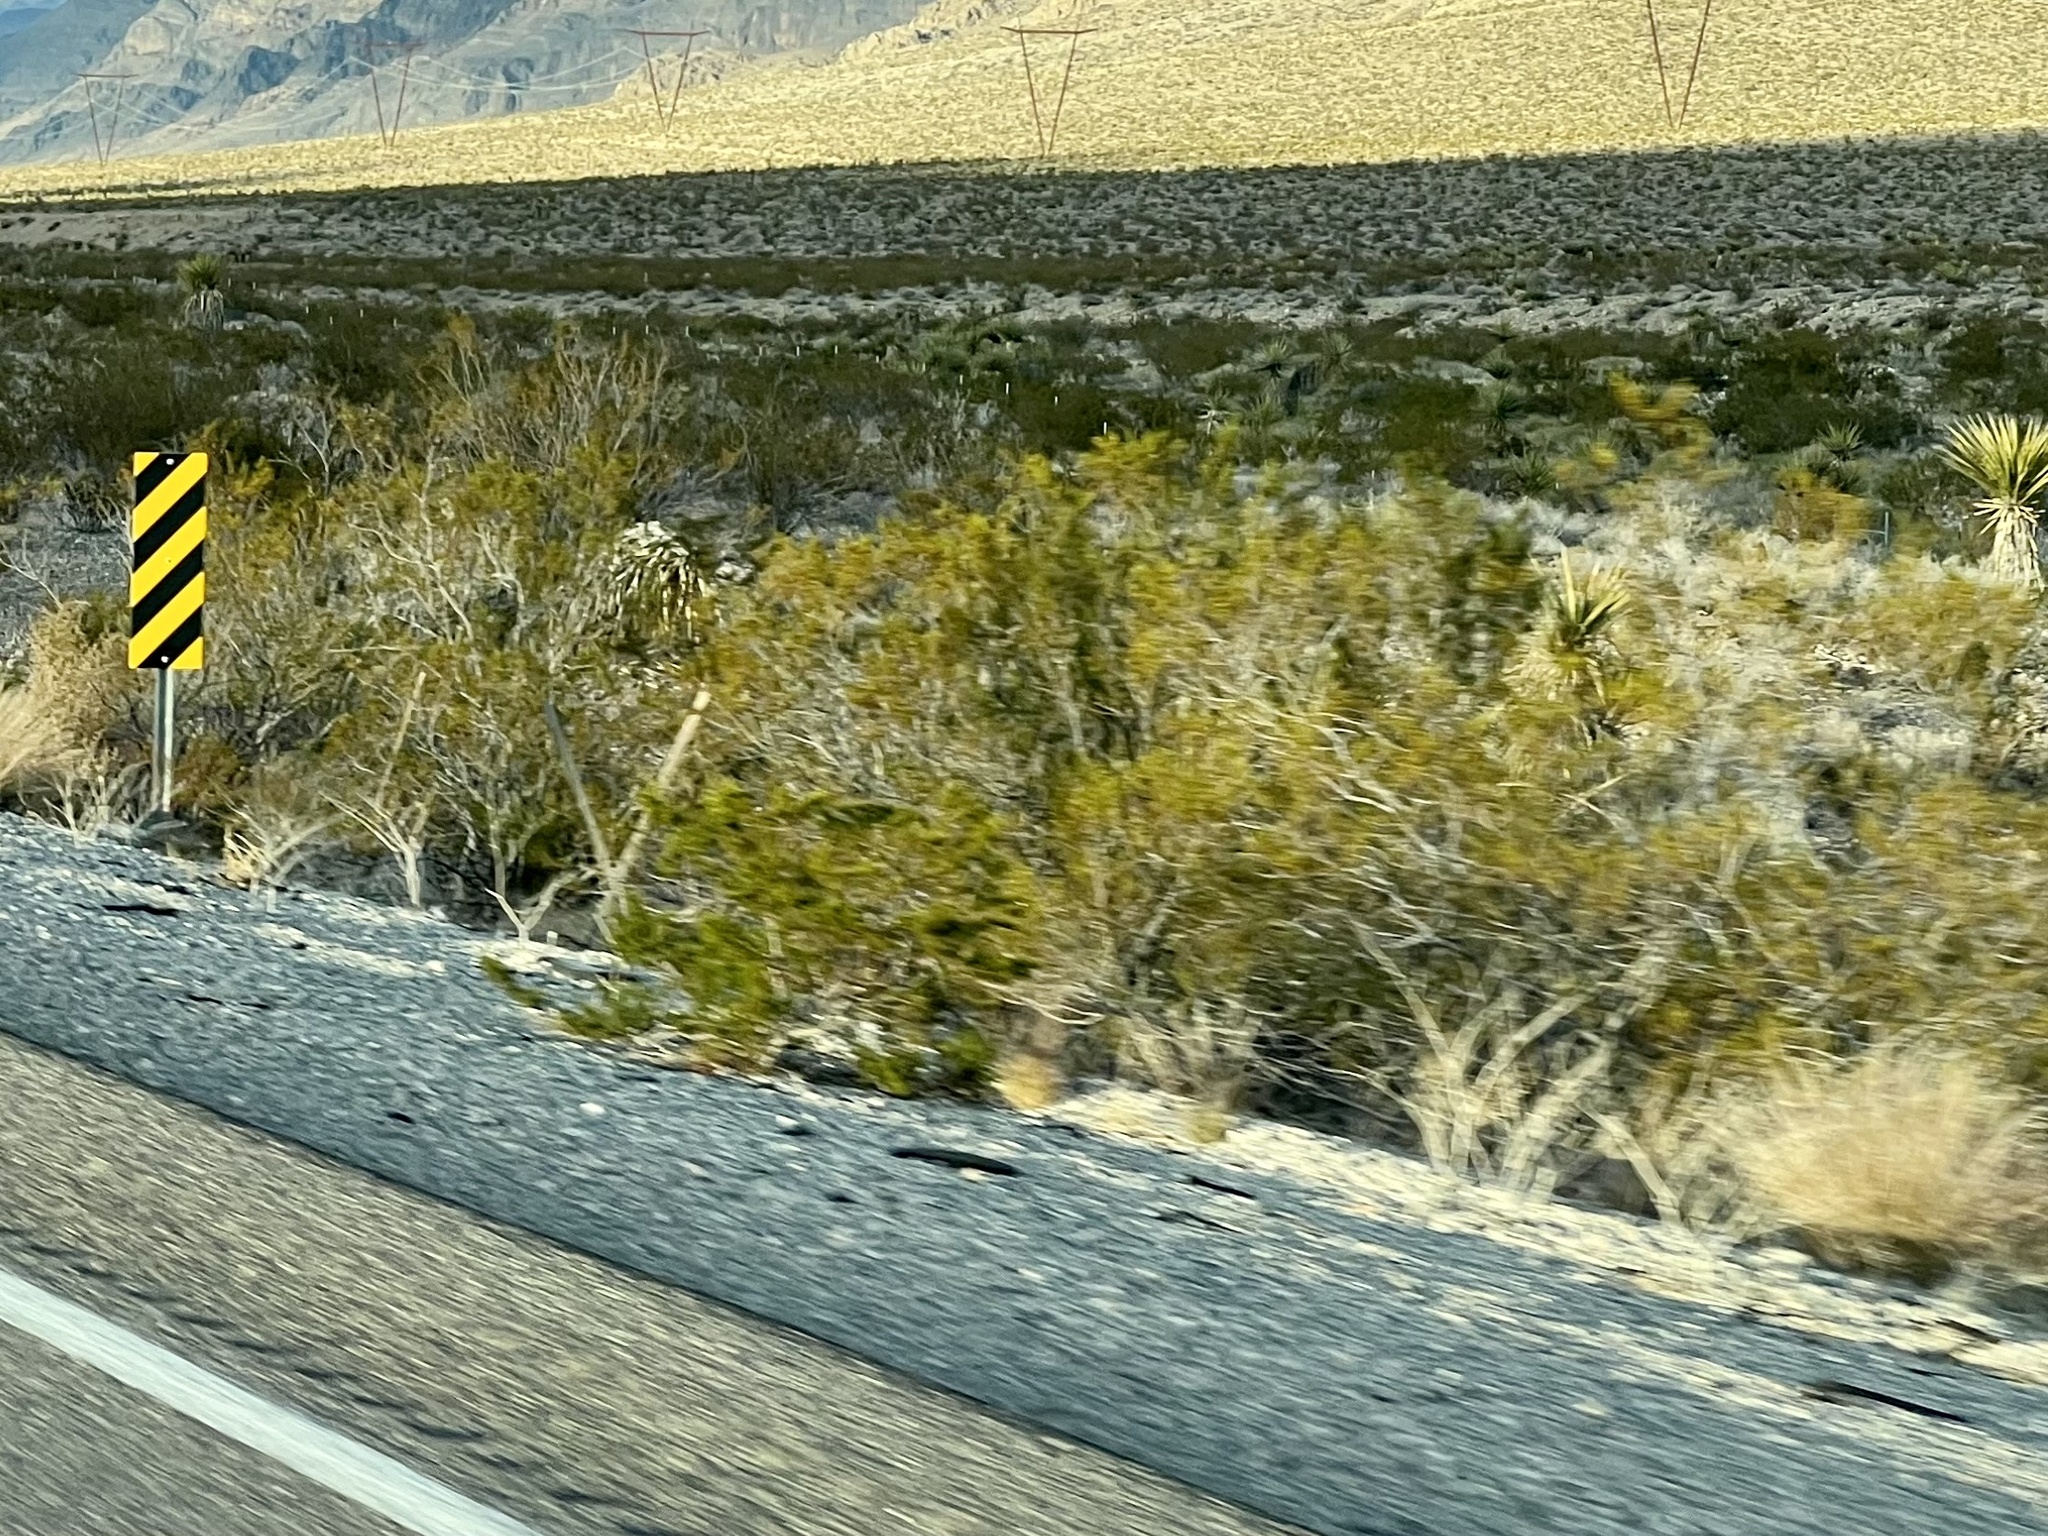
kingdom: Plantae
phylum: Tracheophyta
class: Magnoliopsida
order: Zygophyllales
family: Zygophyllaceae
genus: Larrea
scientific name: Larrea tridentata
